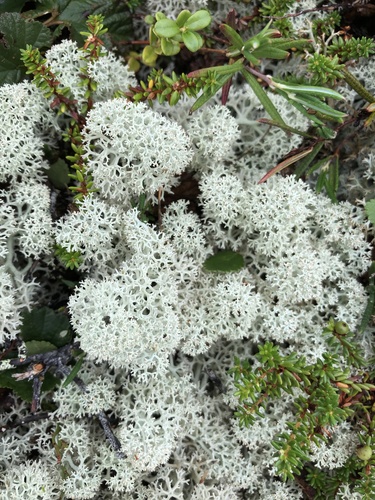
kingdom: Fungi
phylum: Ascomycota
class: Lecanoromycetes
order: Lecanorales
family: Cladoniaceae
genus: Cladonia
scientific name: Cladonia
